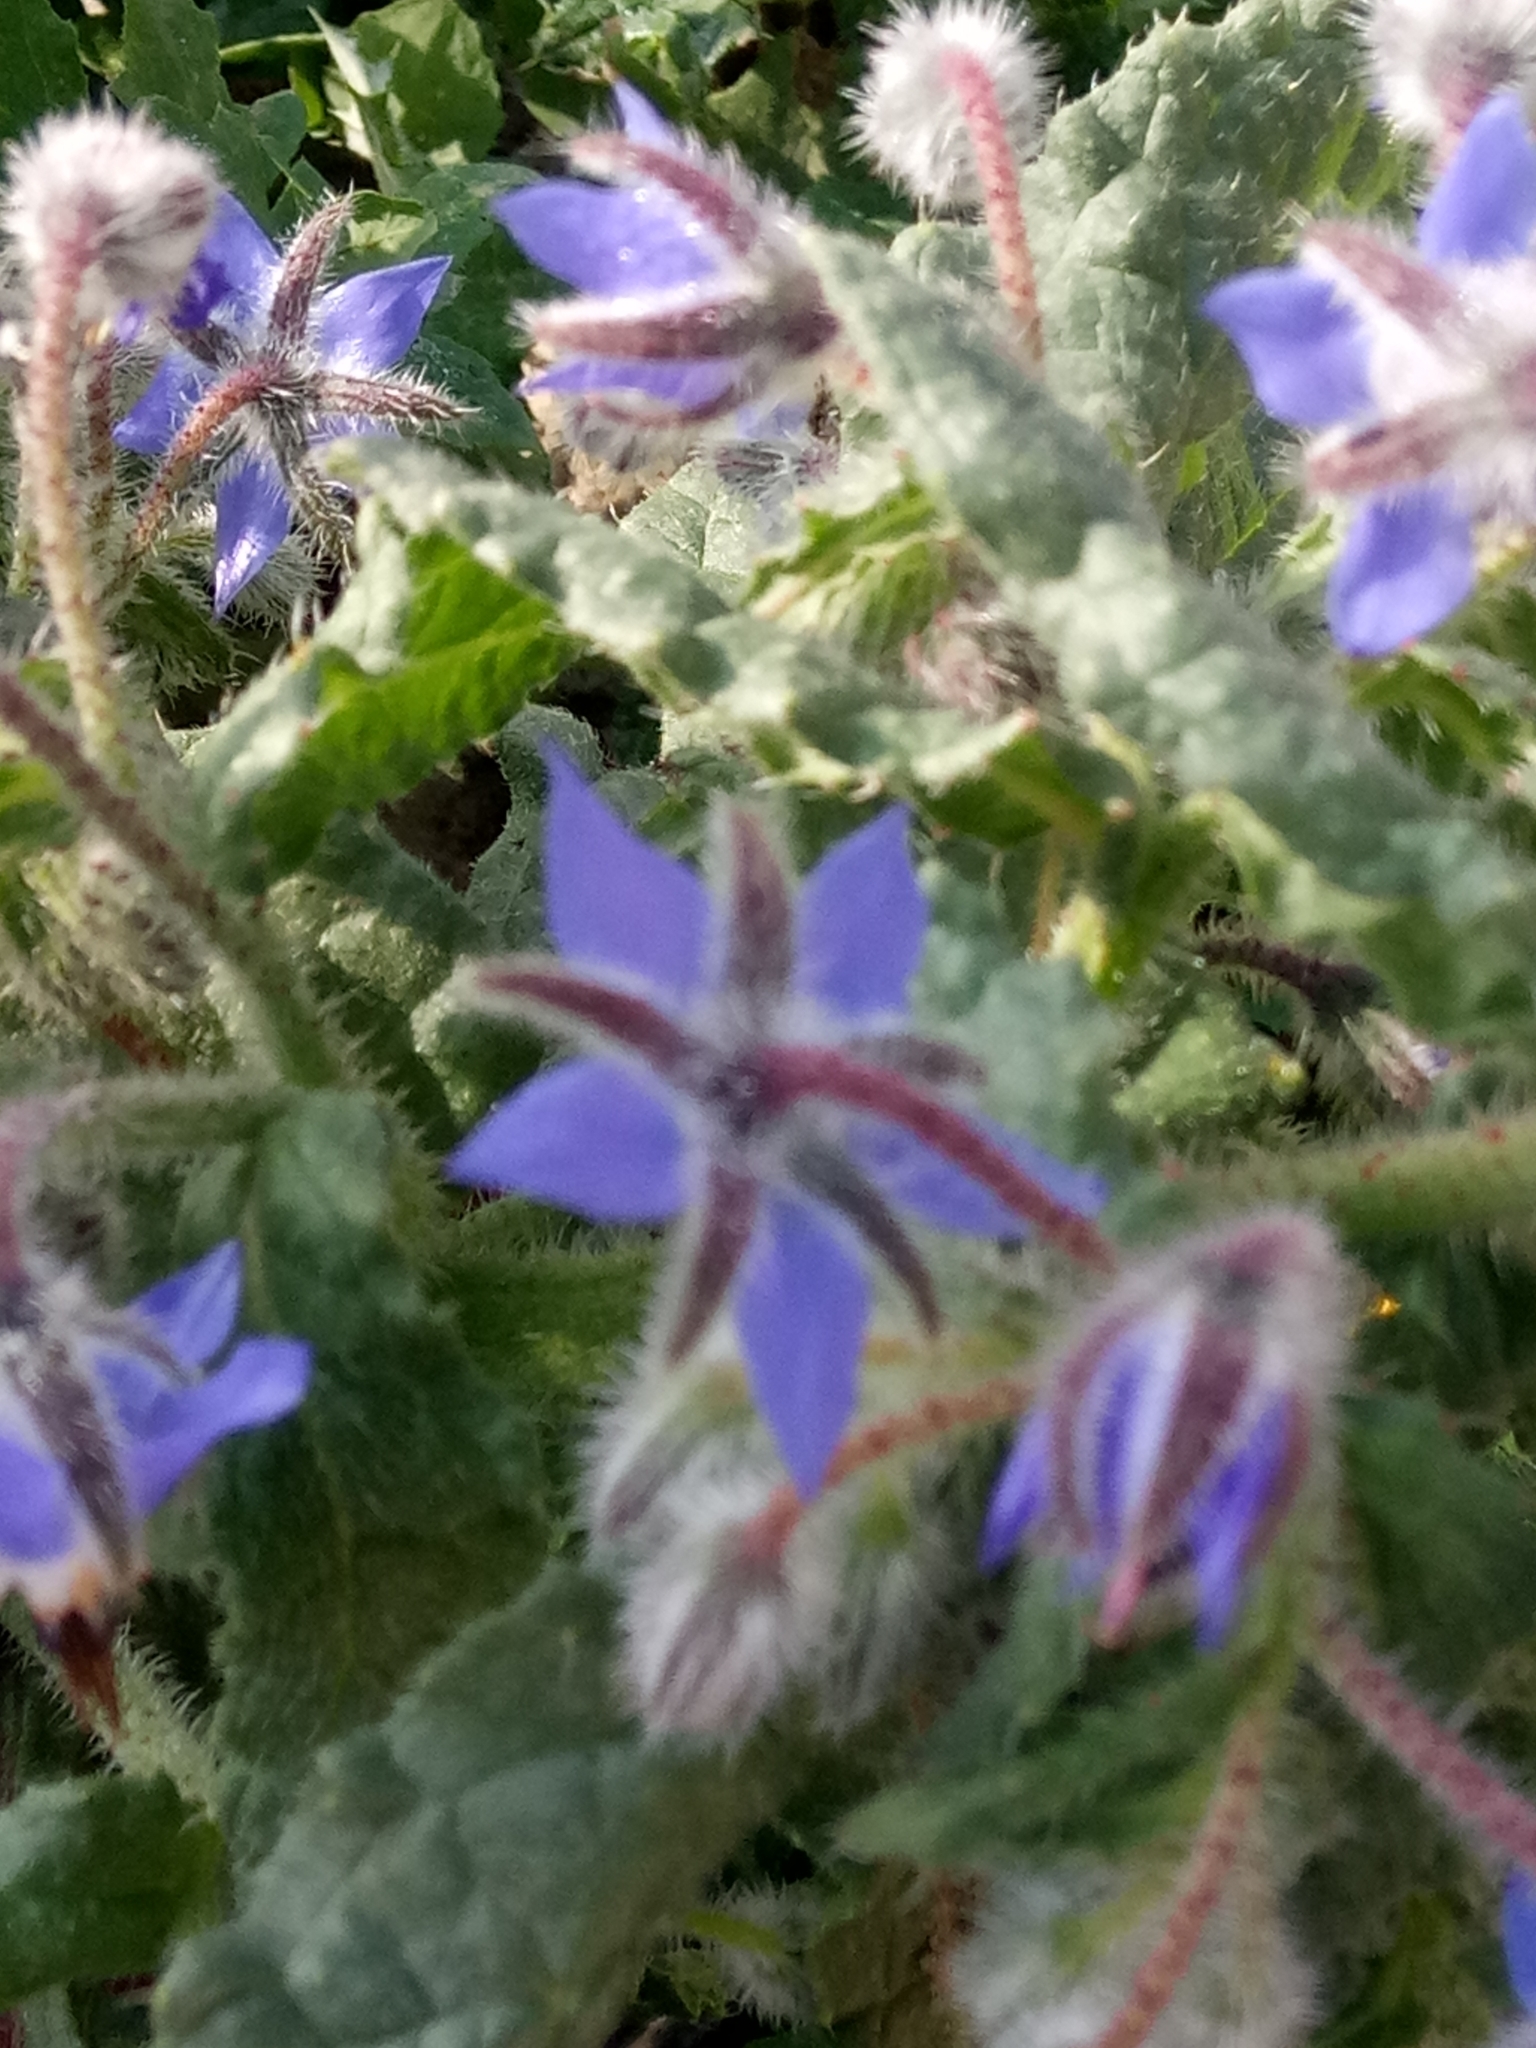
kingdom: Plantae
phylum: Tracheophyta
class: Magnoliopsida
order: Boraginales
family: Boraginaceae
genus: Borago
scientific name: Borago officinalis
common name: Borage
